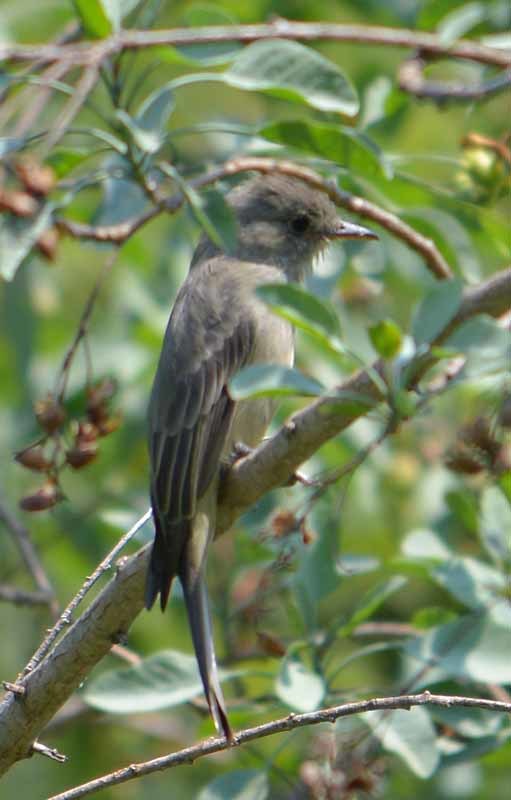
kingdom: Animalia
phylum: Chordata
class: Aves
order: Passeriformes
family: Tyrannidae
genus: Contopus
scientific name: Contopus pertinax
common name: Greater pewee
